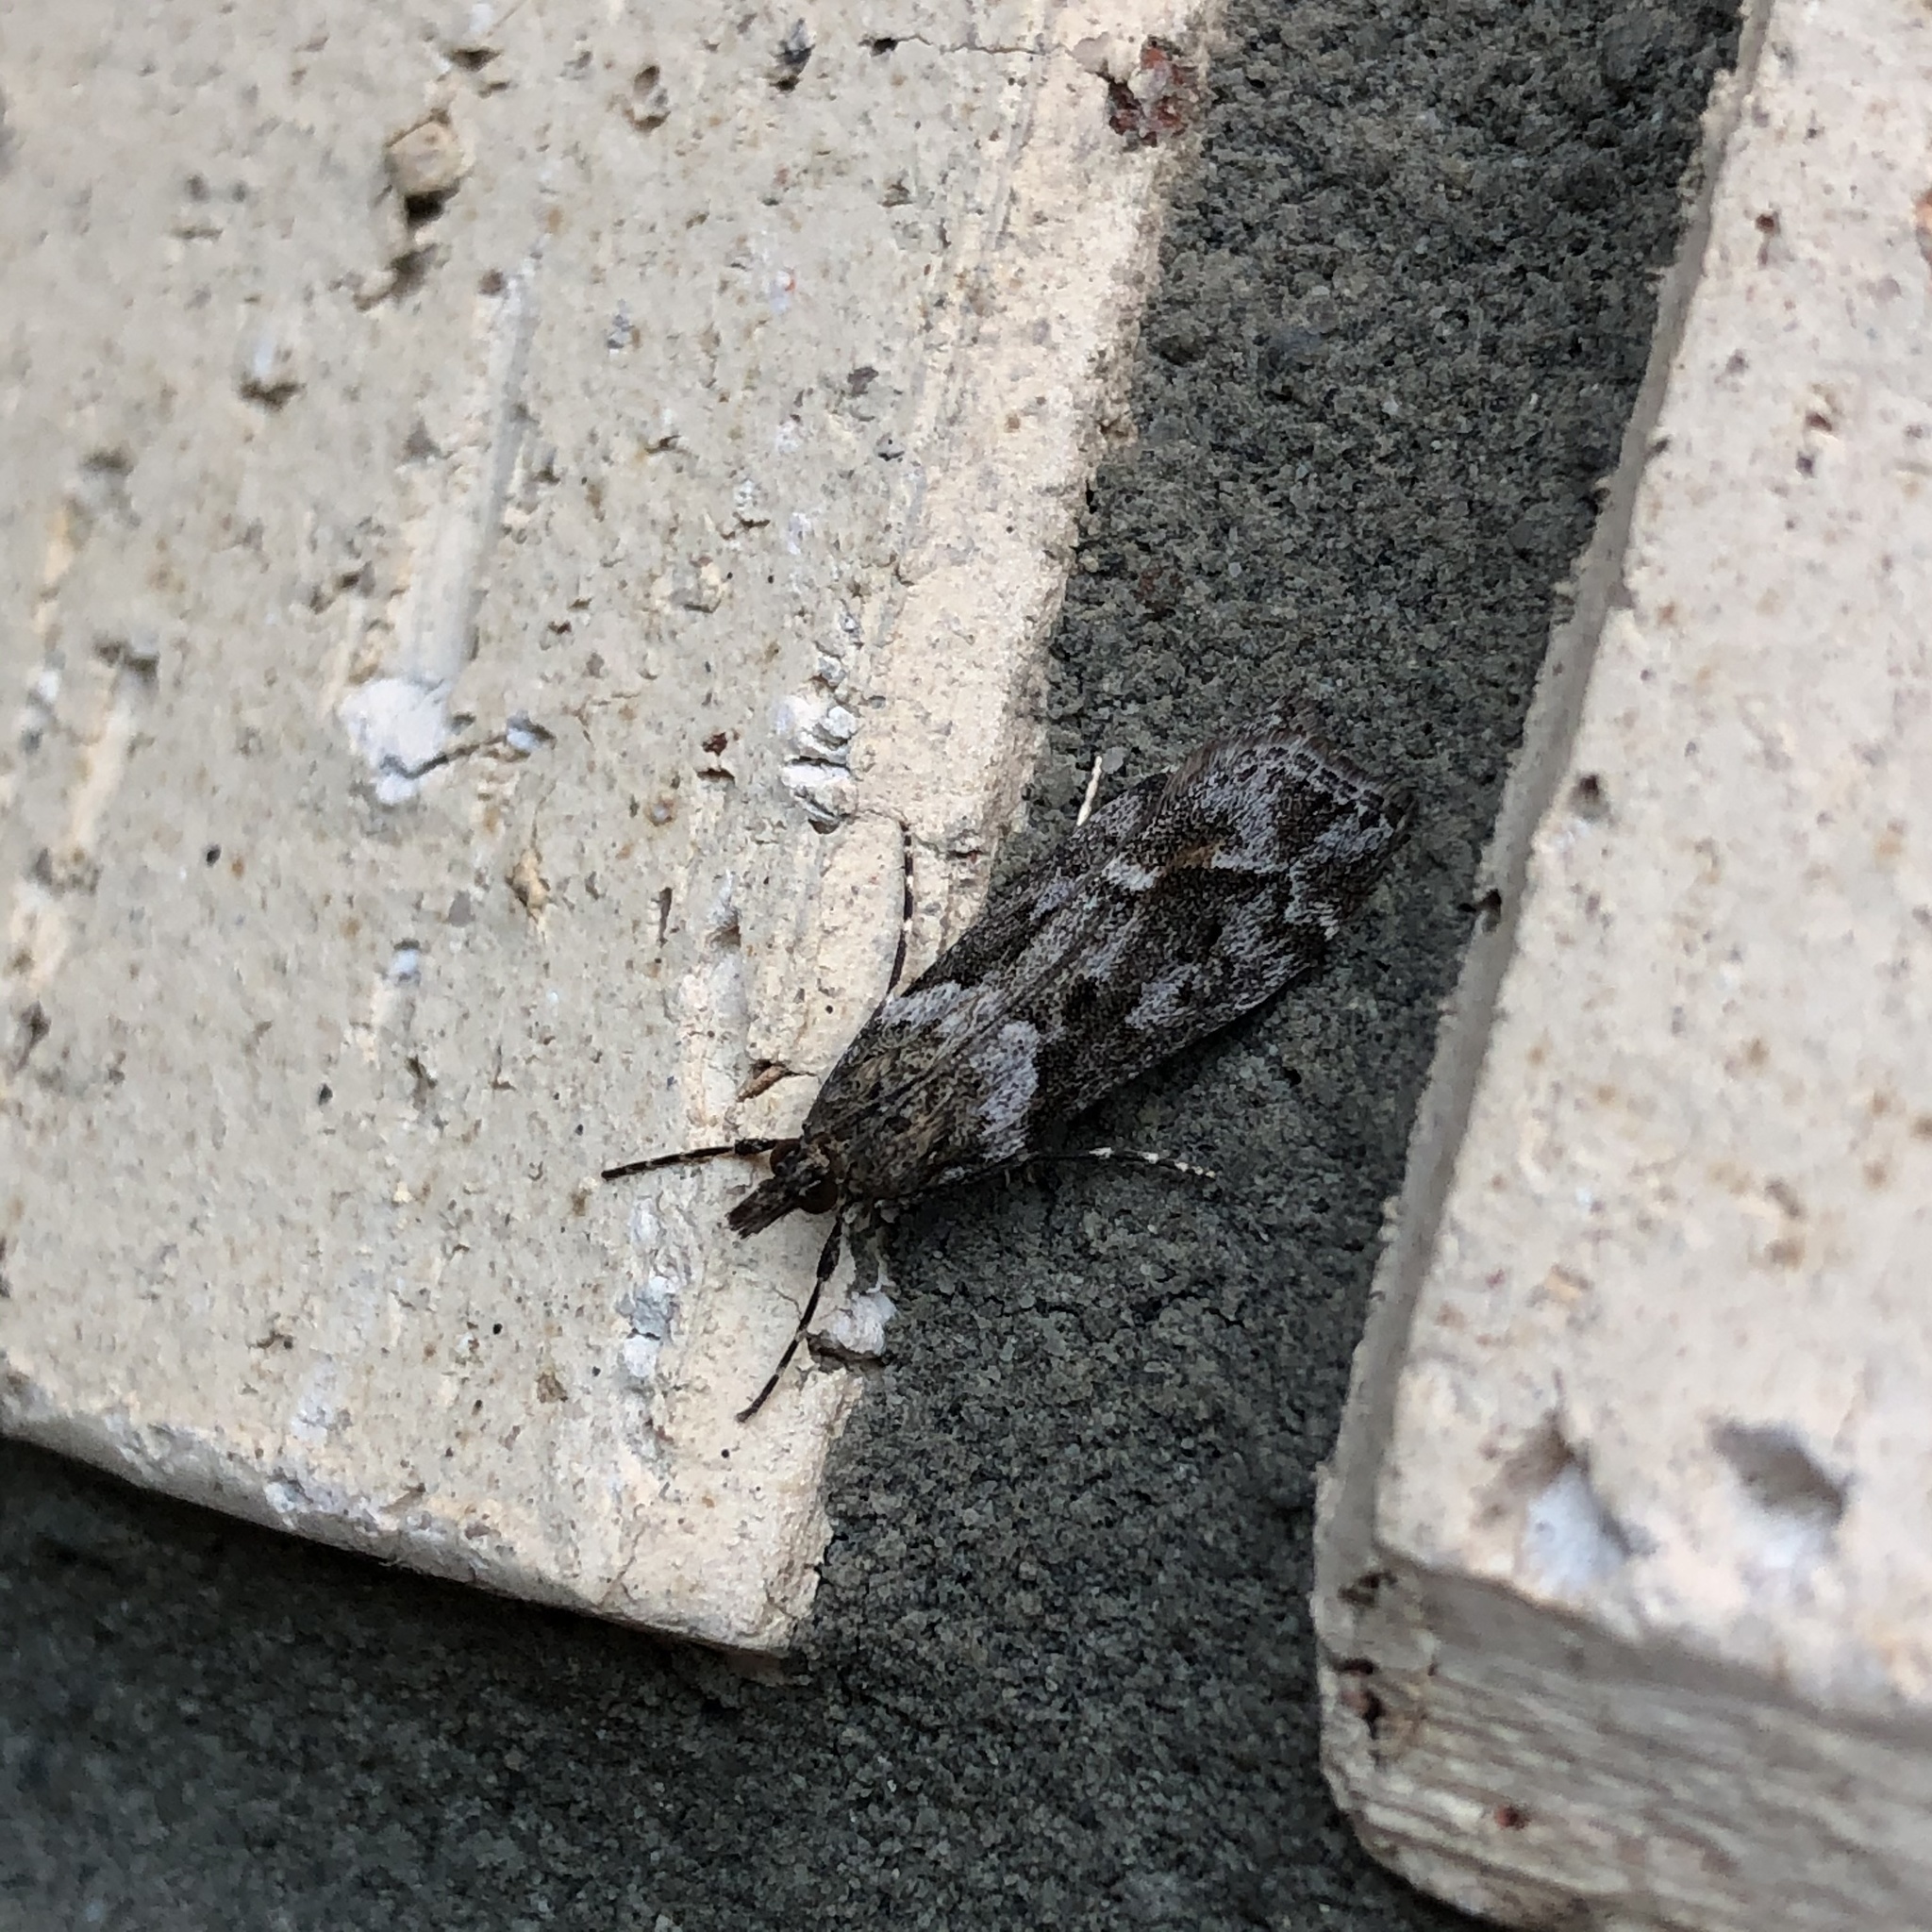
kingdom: Animalia
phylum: Arthropoda
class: Insecta
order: Lepidoptera
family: Crambidae
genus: Eudonia
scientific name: Eudonia submarginalis
